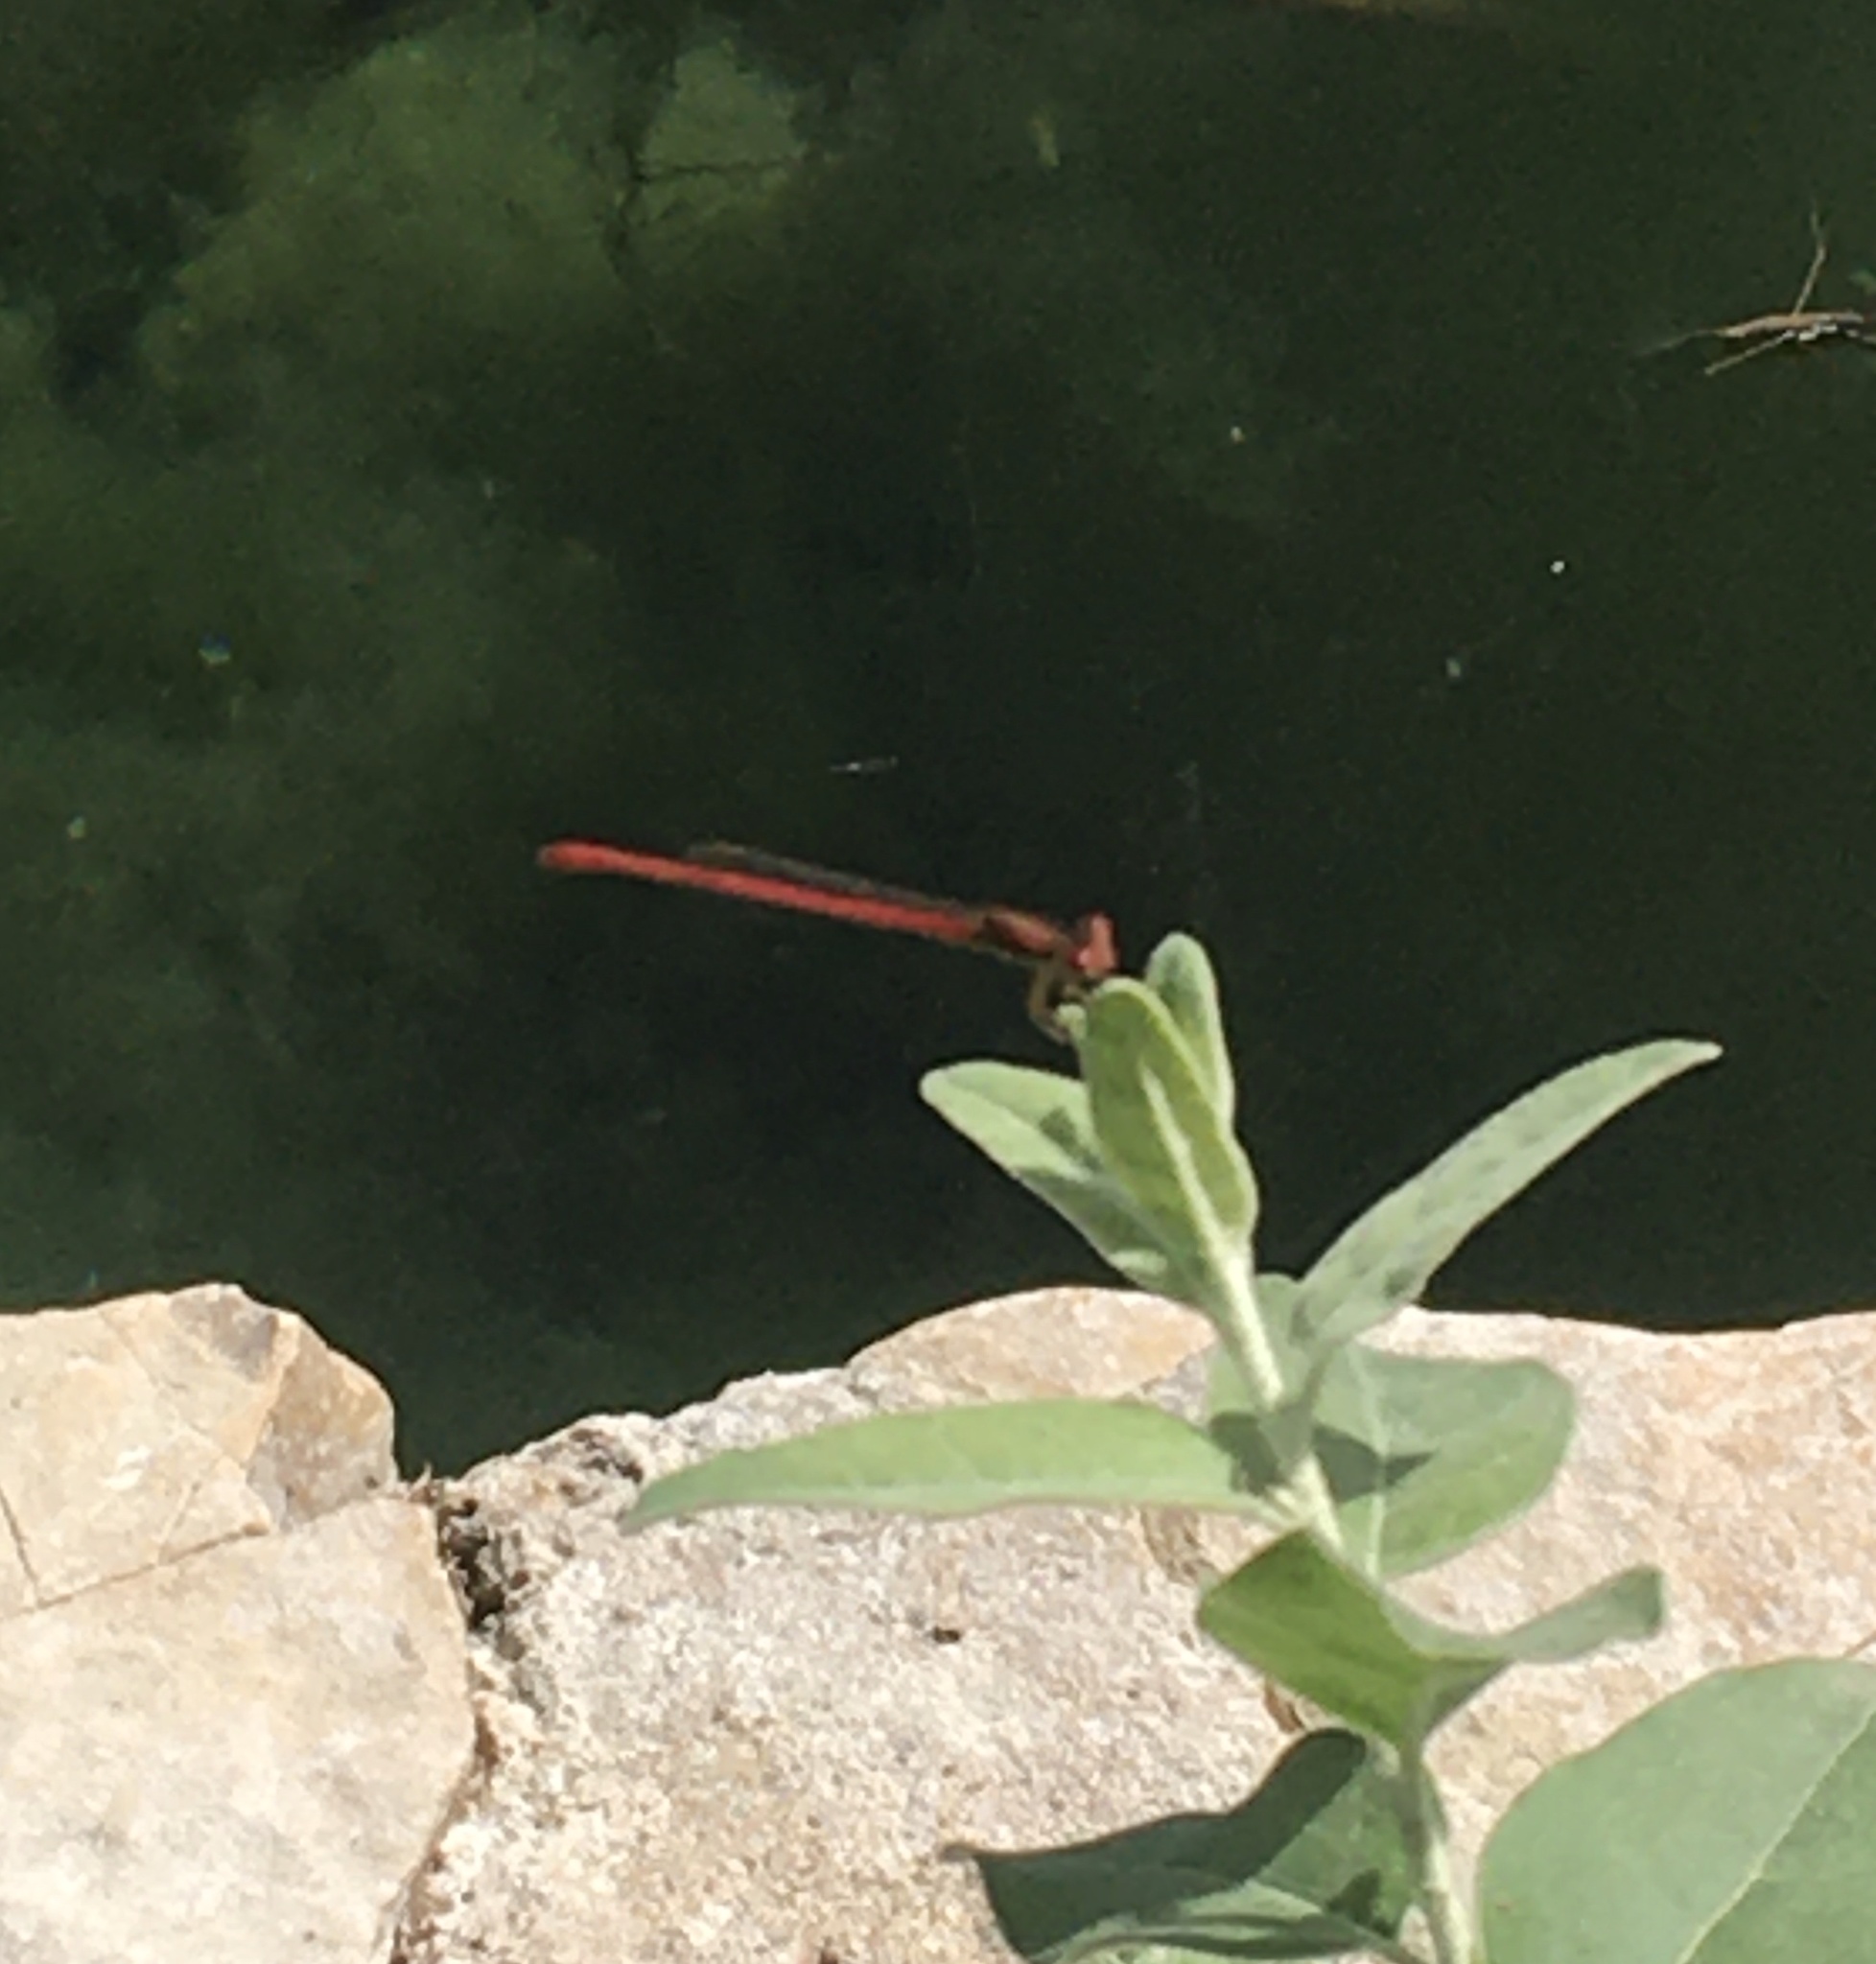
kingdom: Animalia
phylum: Arthropoda
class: Insecta
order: Odonata
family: Coenagrionidae
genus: Telebasis
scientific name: Telebasis salva
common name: Desert firetail
